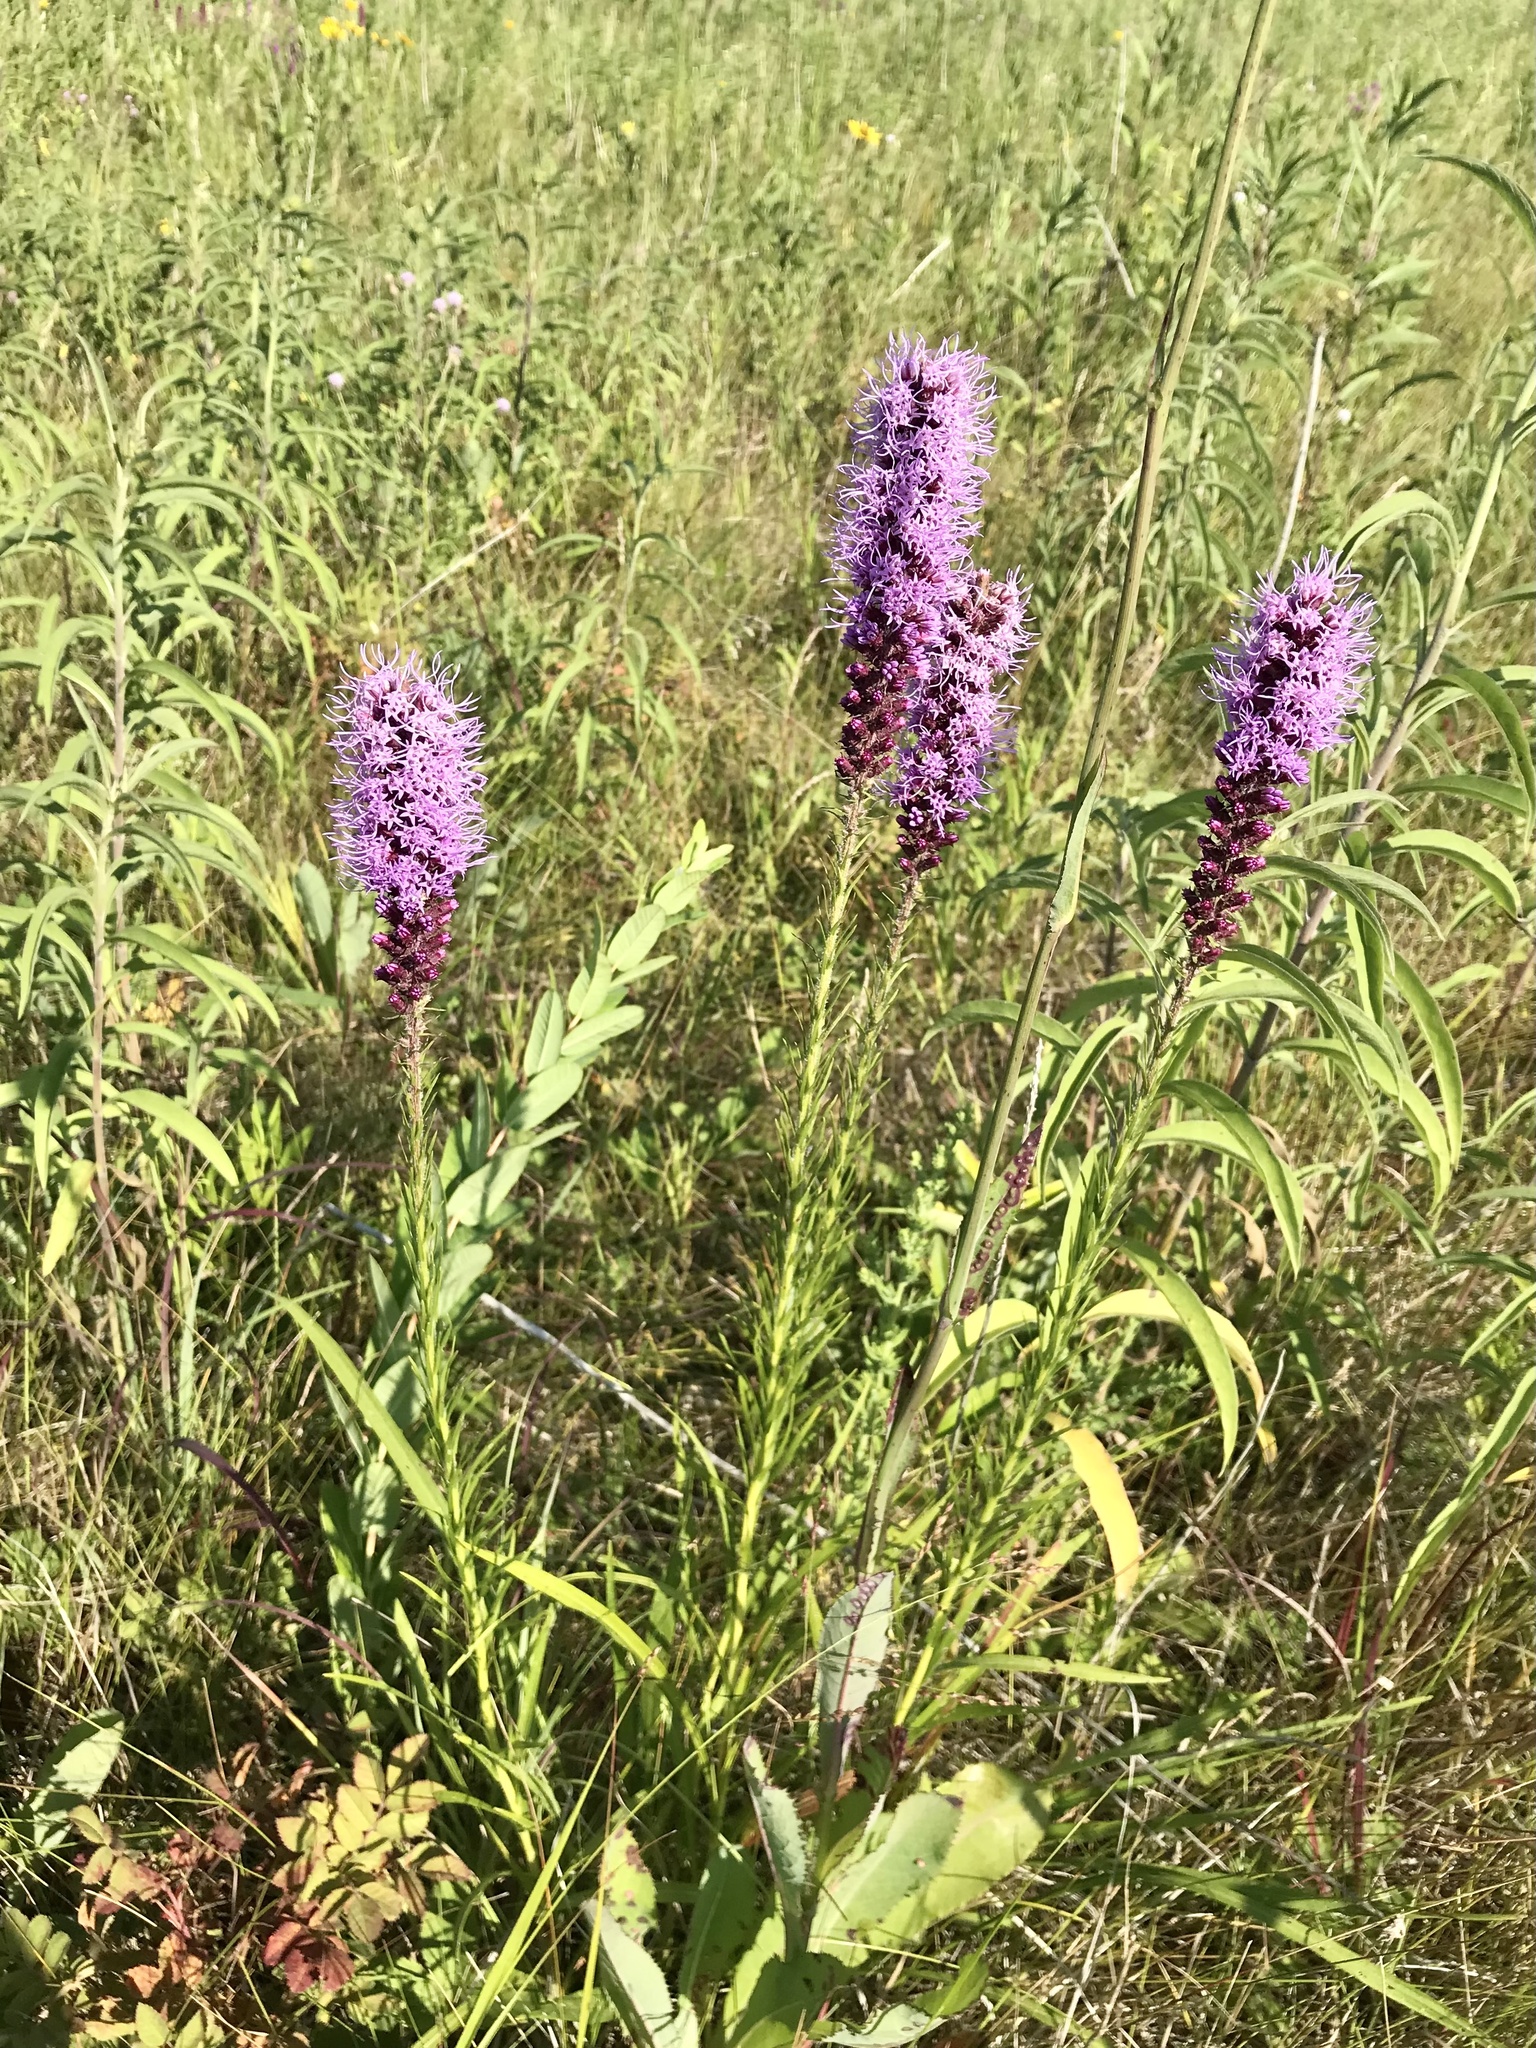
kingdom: Plantae
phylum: Tracheophyta
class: Magnoliopsida
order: Asterales
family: Asteraceae
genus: Liatris
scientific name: Liatris pycnostachya
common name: Cattail gayfeather
